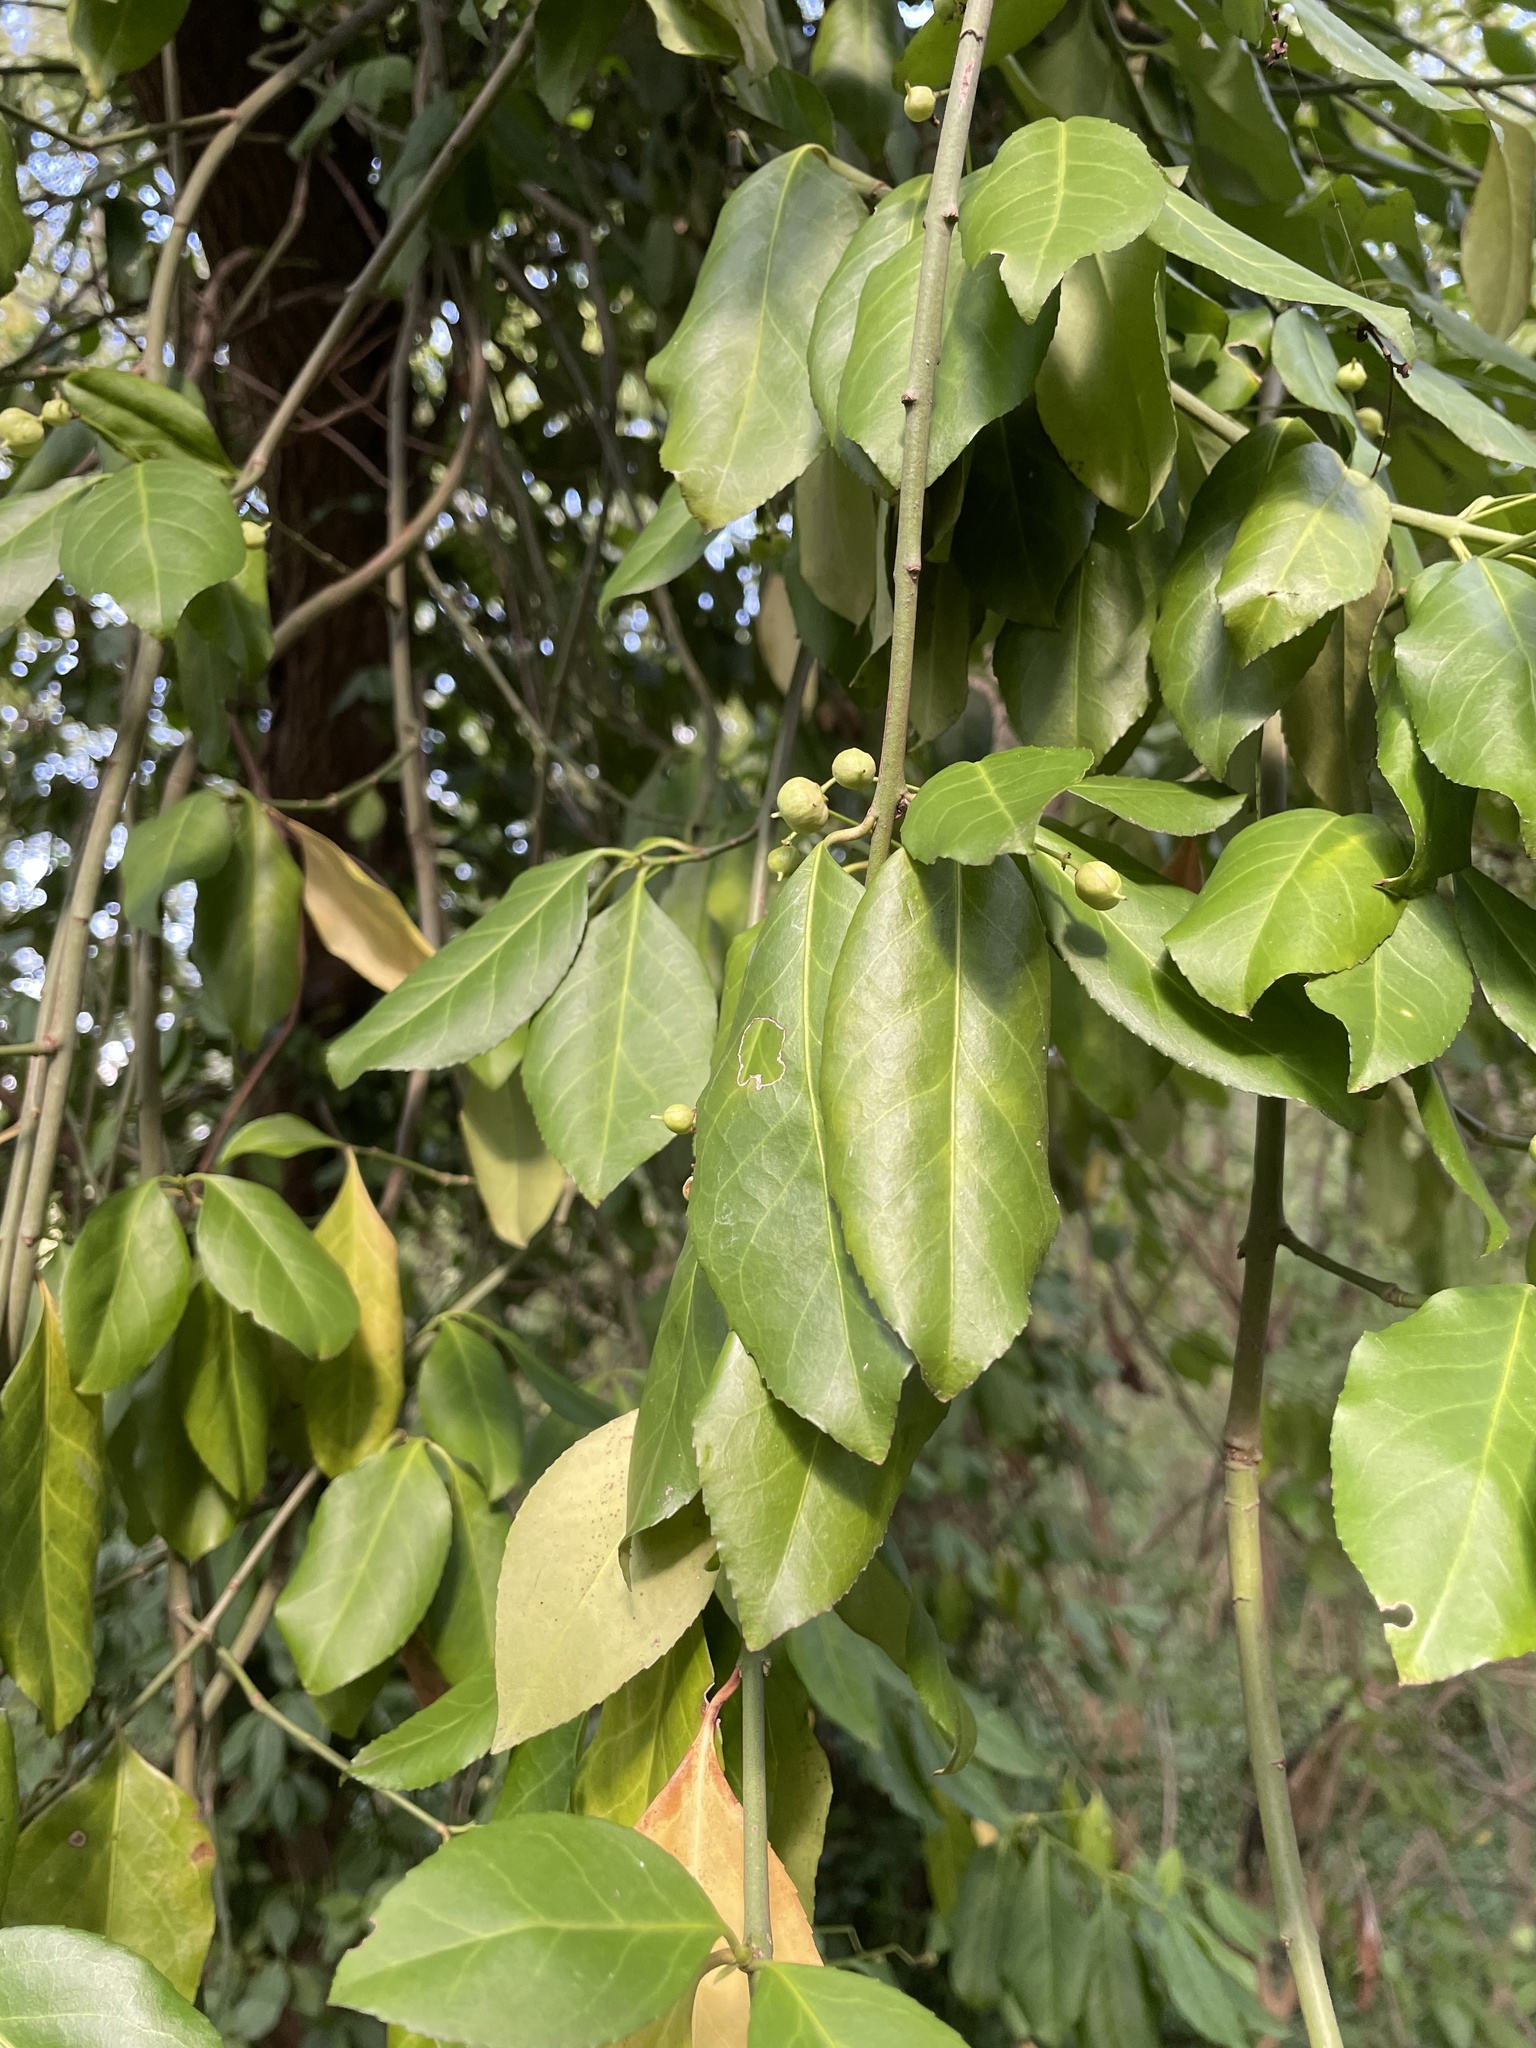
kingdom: Plantae
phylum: Tracheophyta
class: Magnoliopsida
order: Celastrales
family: Celastraceae
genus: Euonymus
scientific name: Euonymus fortunei
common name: Climbing euonymus
